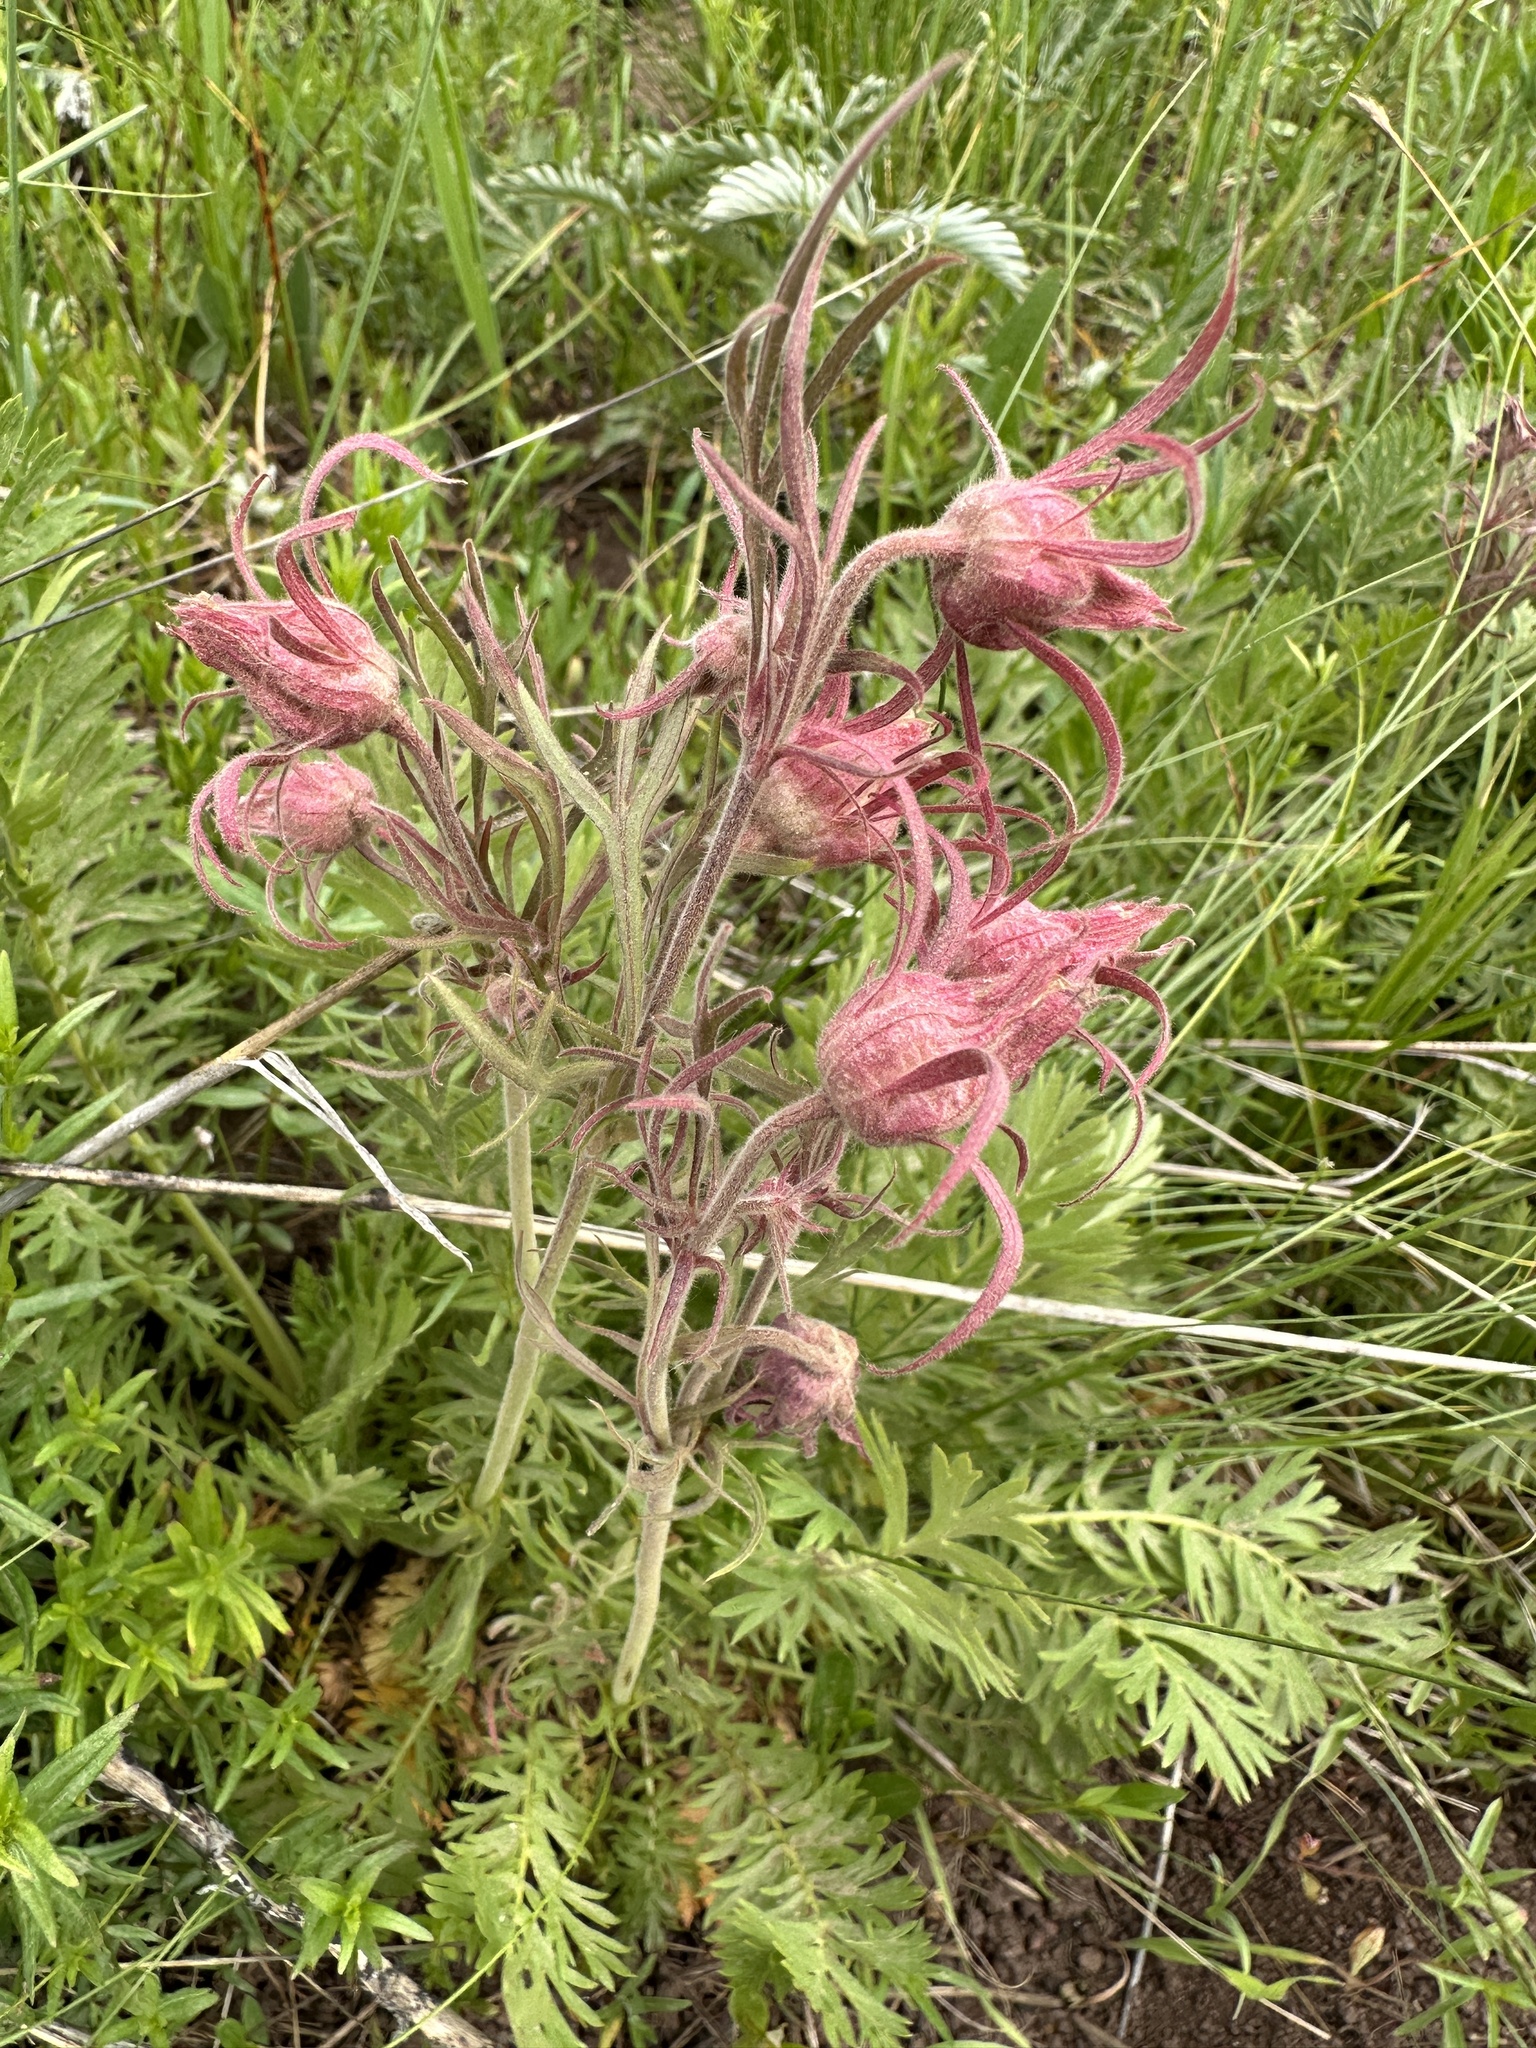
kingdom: Plantae
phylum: Tracheophyta
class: Magnoliopsida
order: Rosales
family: Rosaceae
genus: Geum
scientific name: Geum triflorum
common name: Old man's whiskers
